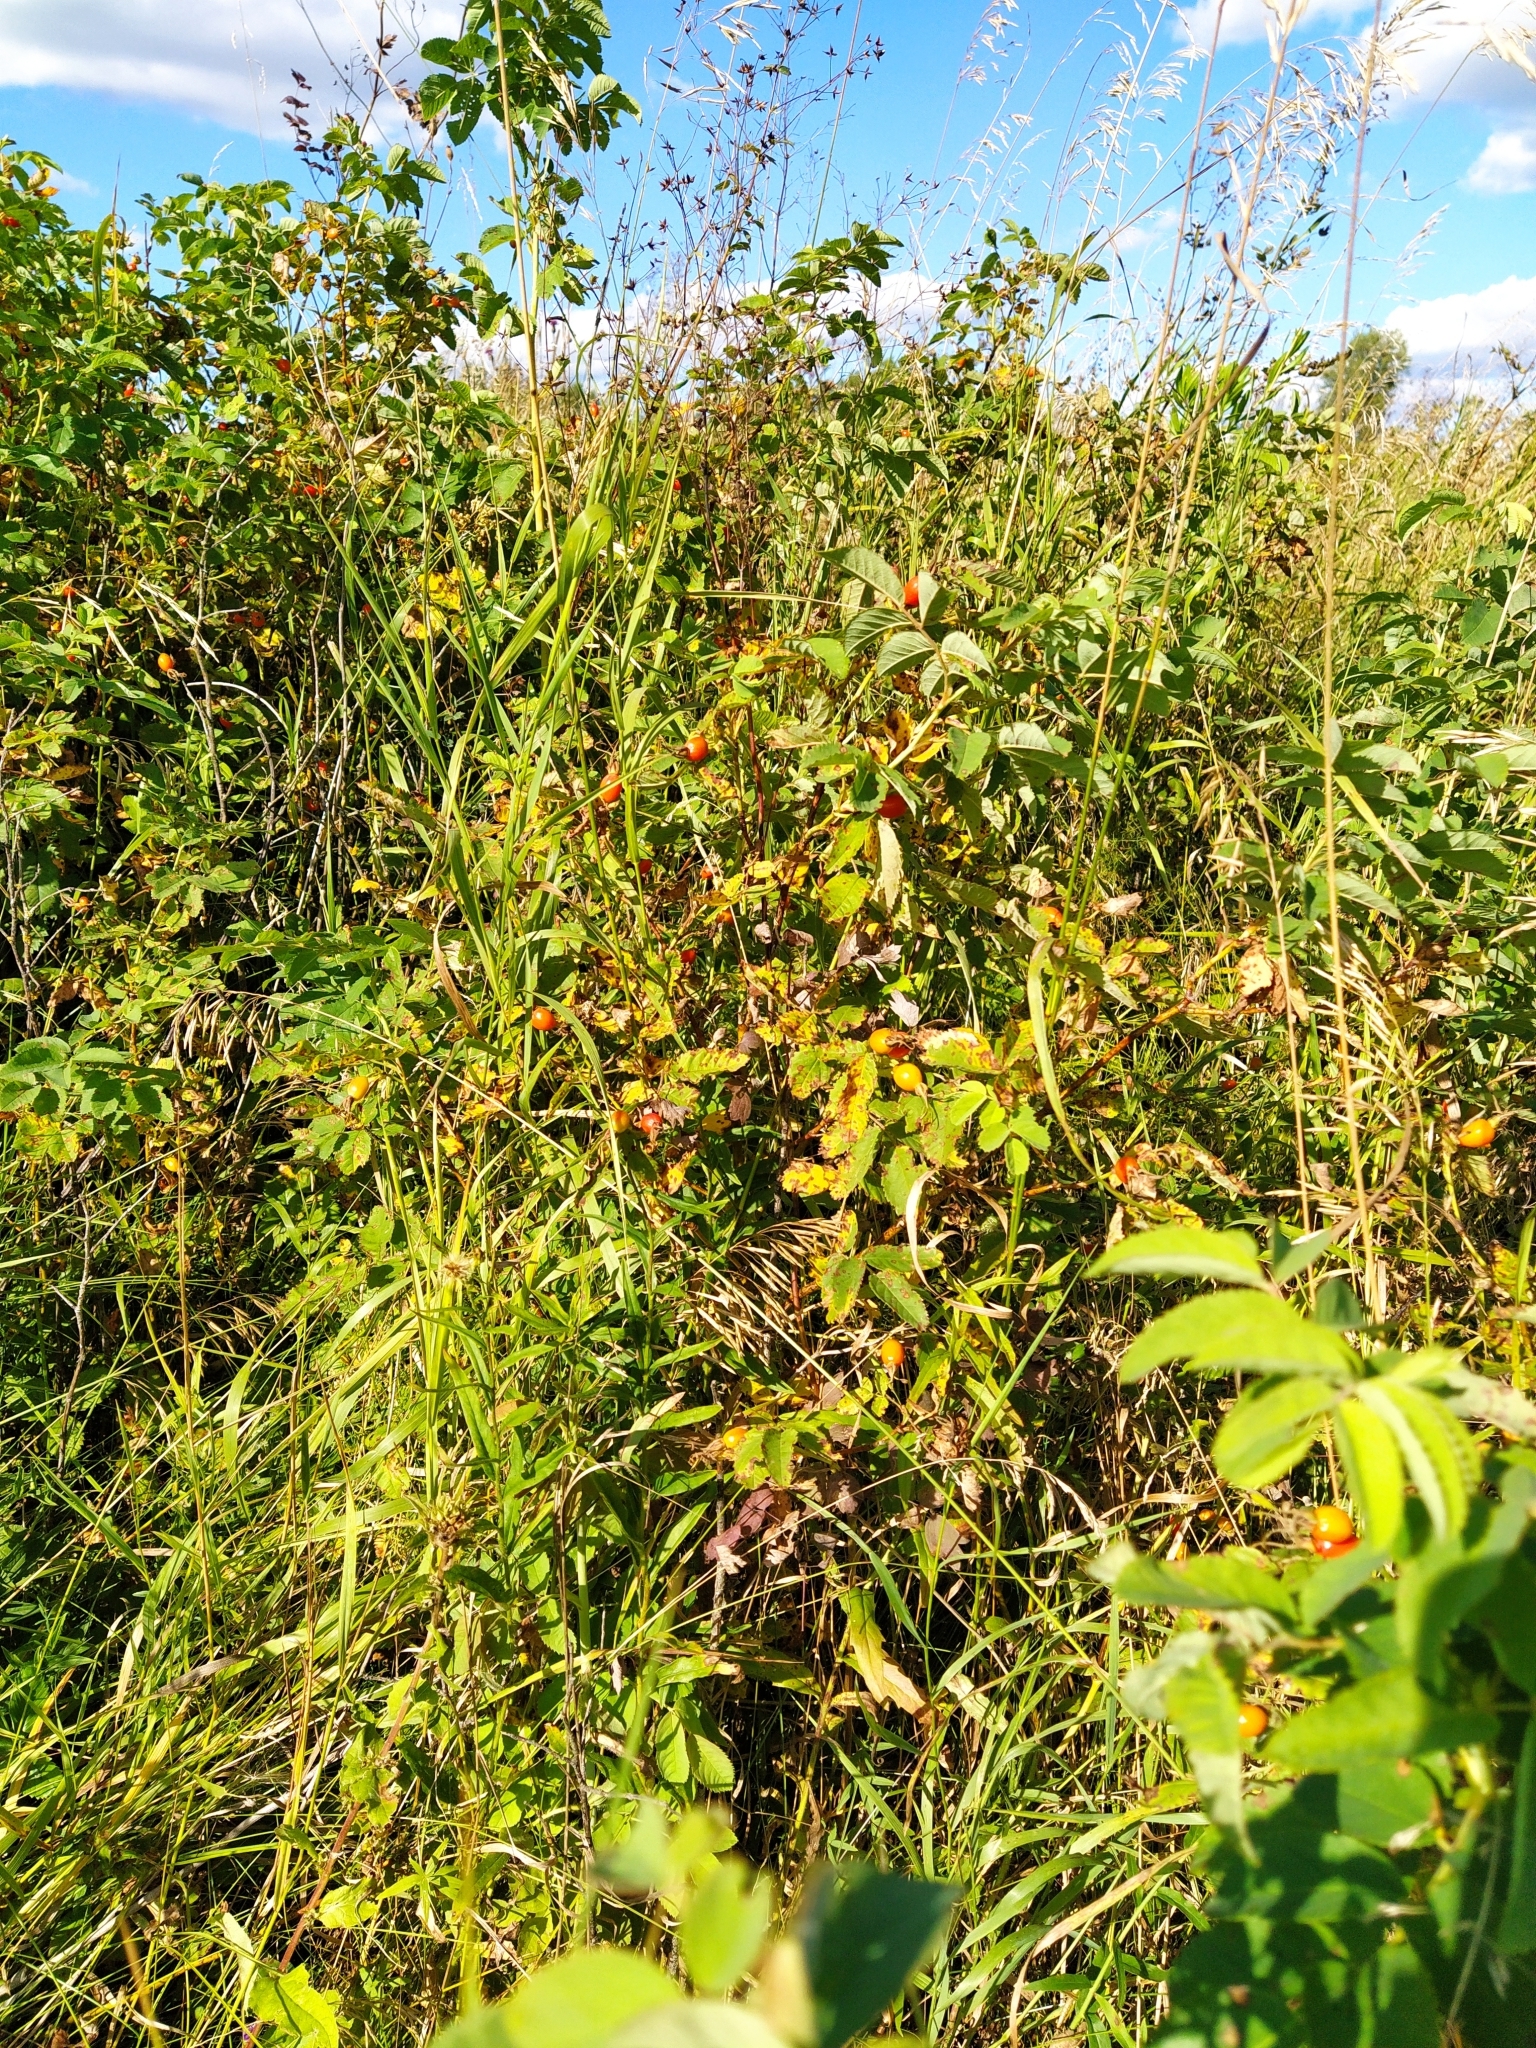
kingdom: Plantae
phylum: Tracheophyta
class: Magnoliopsida
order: Rosales
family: Rosaceae
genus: Rosa
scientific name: Rosa
